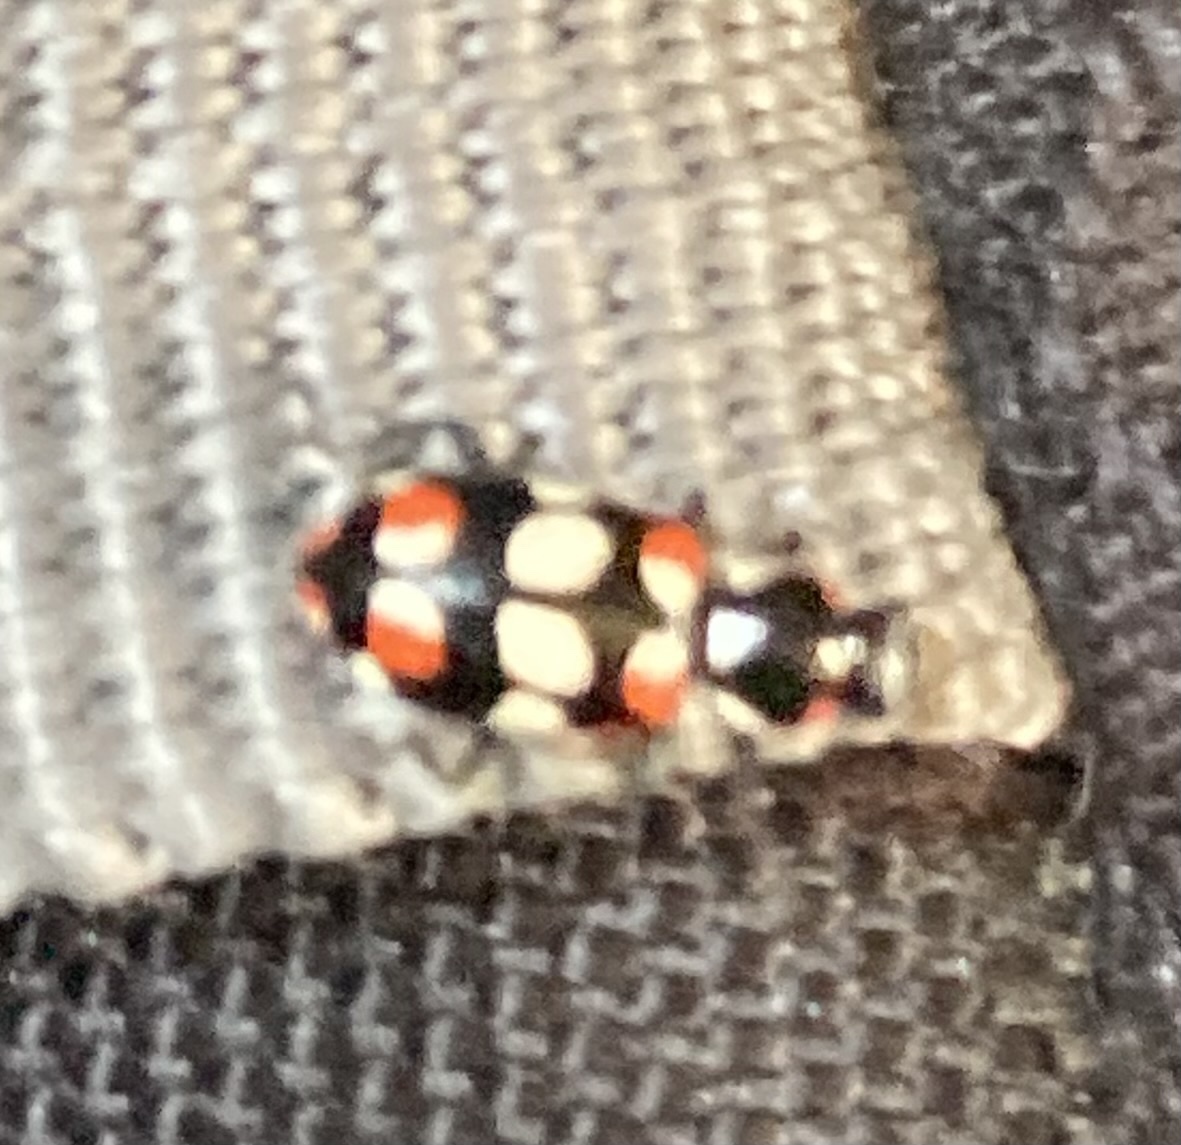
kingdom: Animalia
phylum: Arthropoda
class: Insecta
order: Coleoptera
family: Coccinellidae
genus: Eriopis
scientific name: Eriopis connexa
